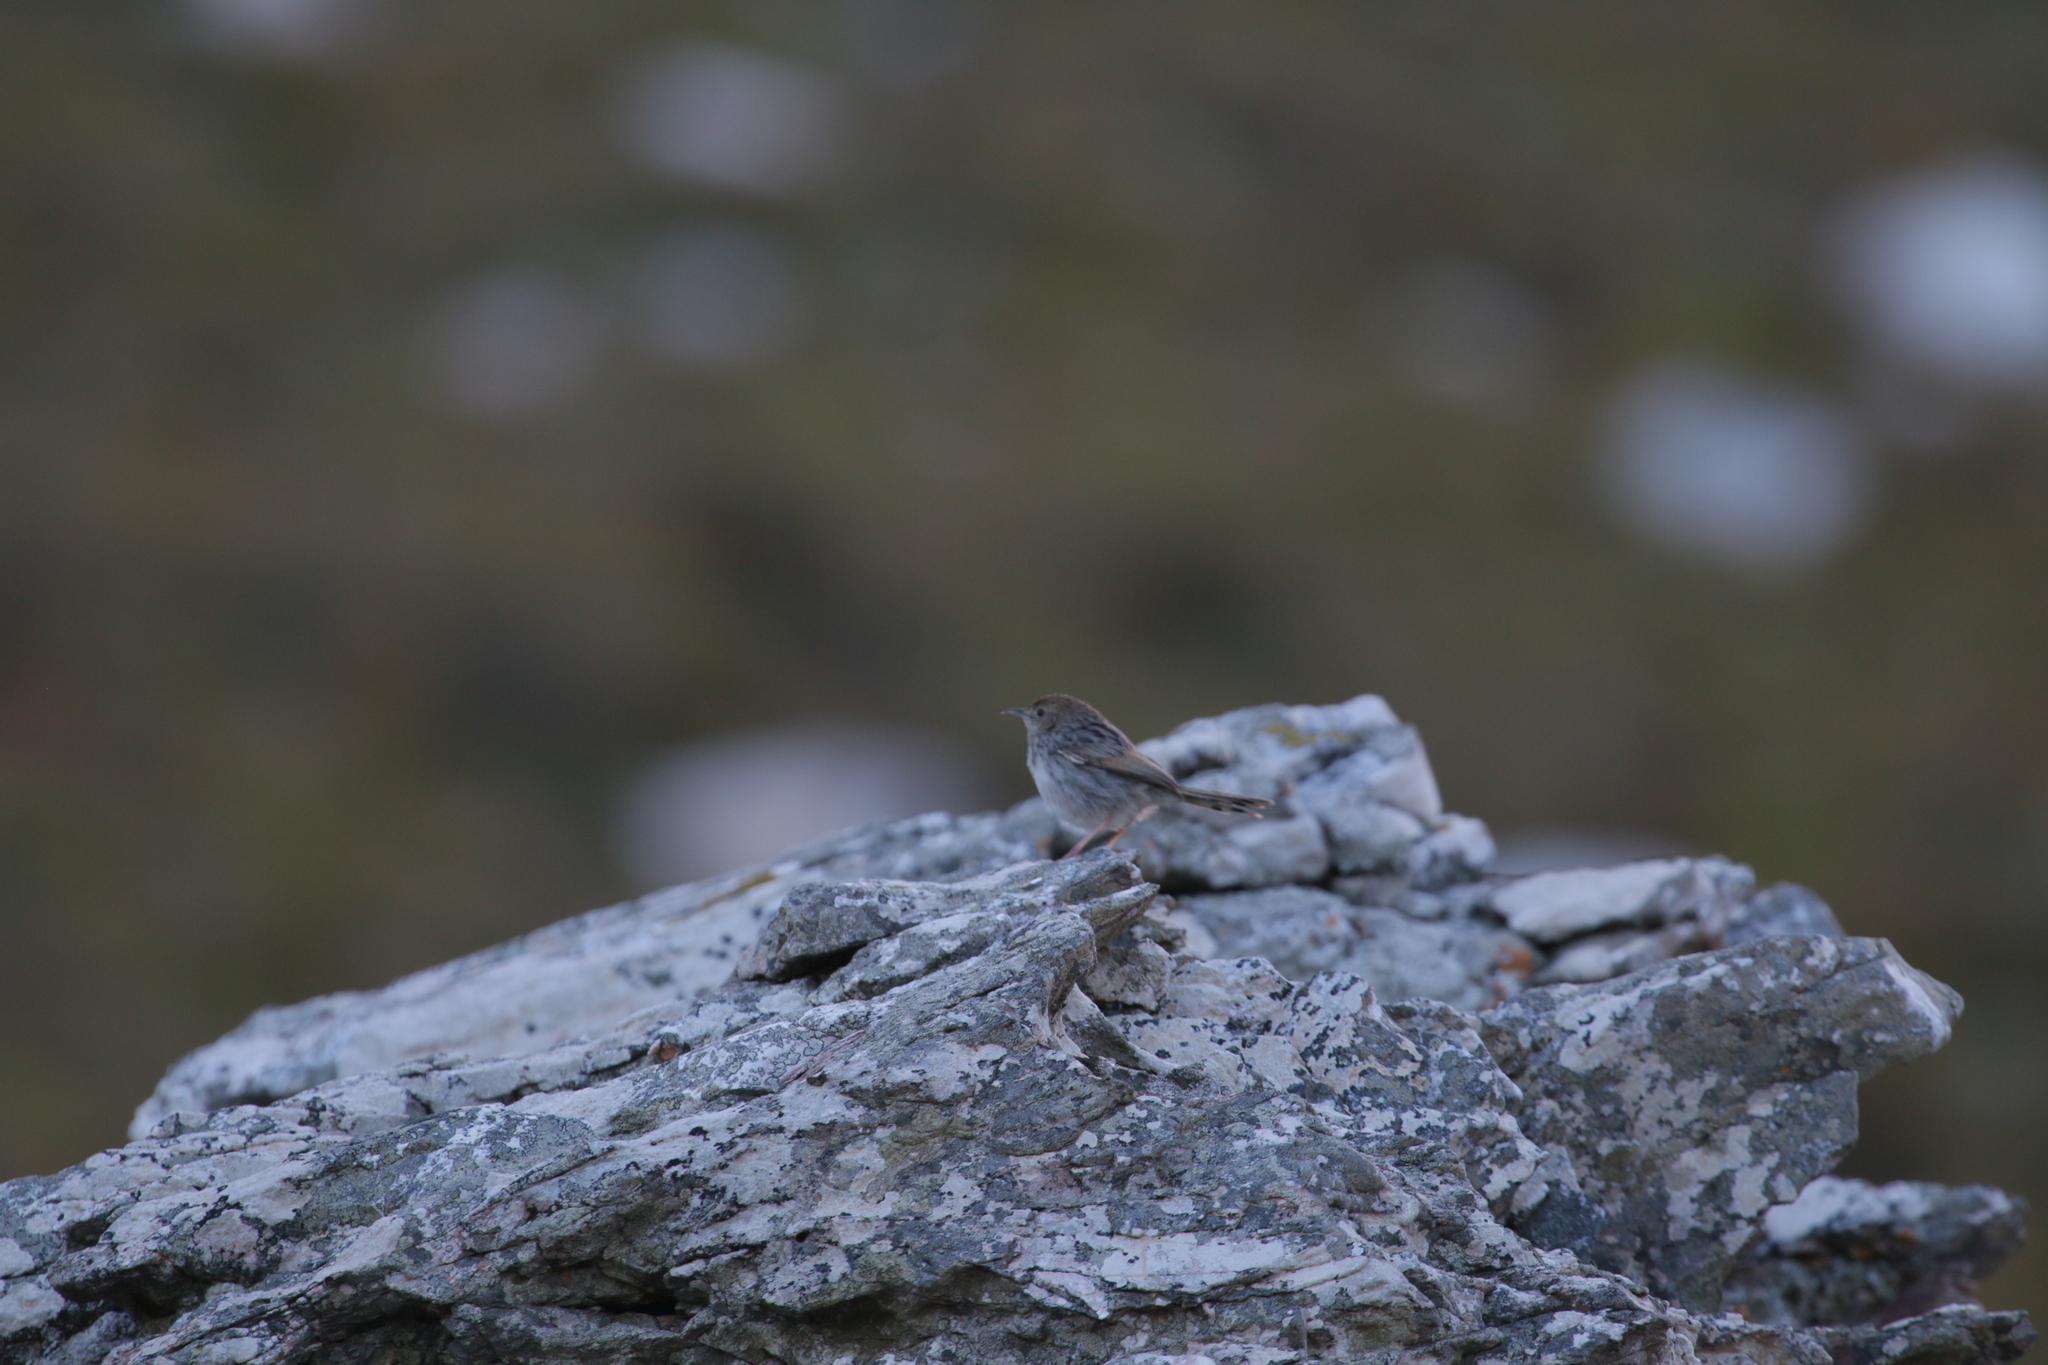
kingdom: Animalia
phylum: Chordata
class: Aves
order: Passeriformes
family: Cisticolidae
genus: Cisticola
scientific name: Cisticola subruficapilla
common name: Grey-backed cisticola
